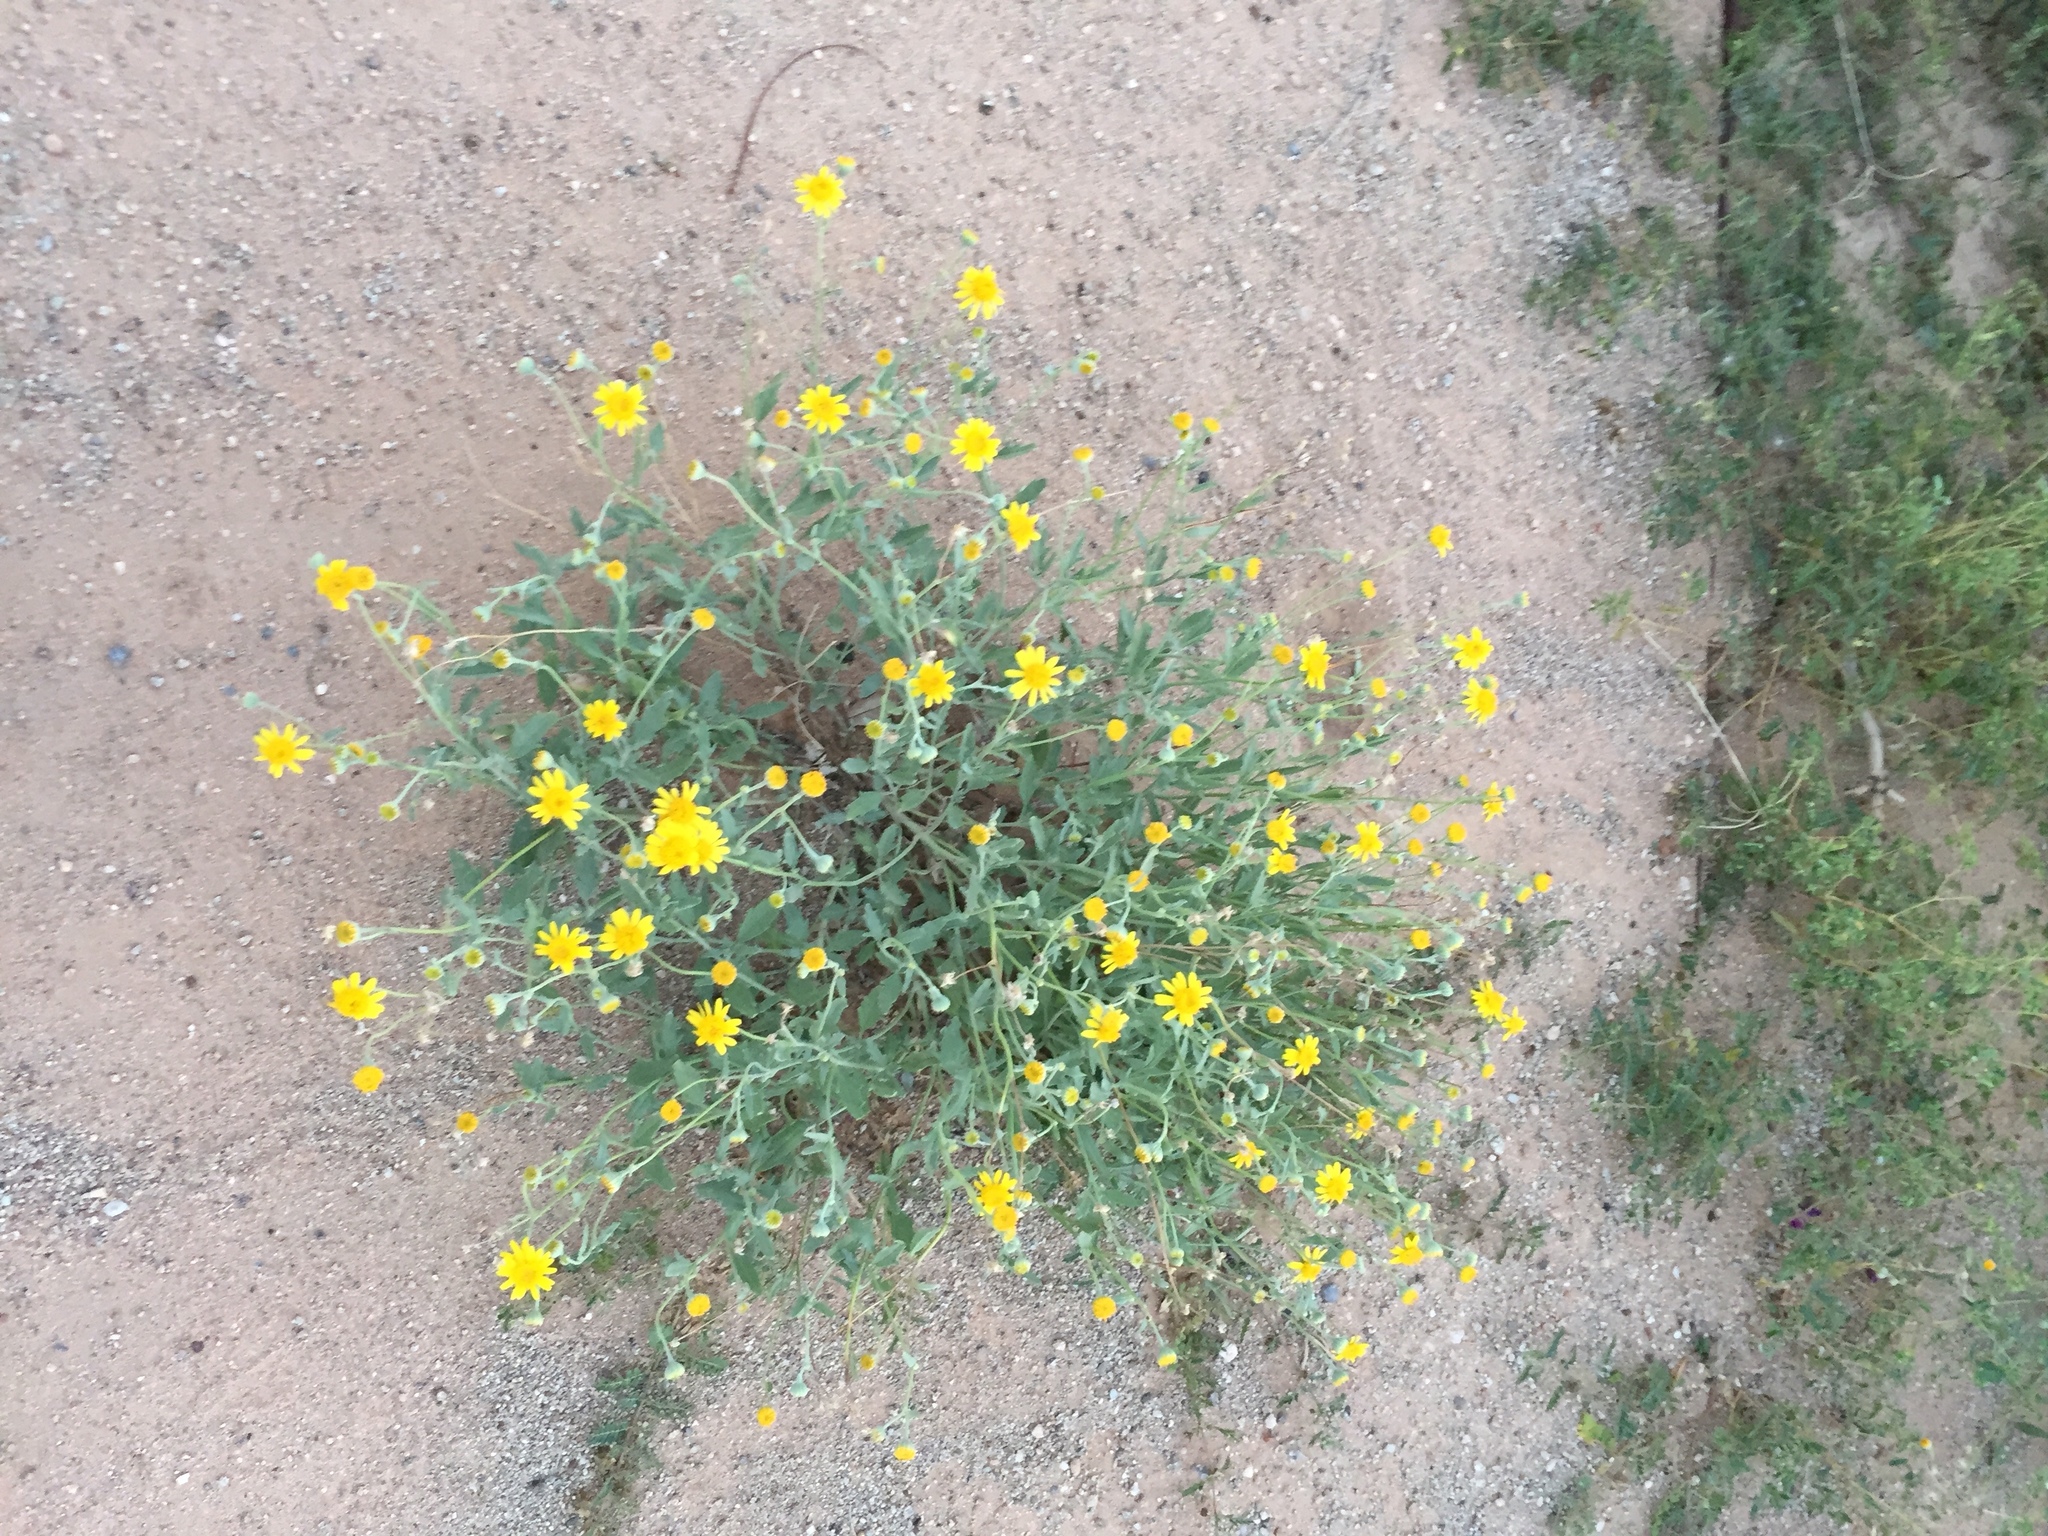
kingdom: Plantae
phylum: Tracheophyta
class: Magnoliopsida
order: Asterales
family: Asteraceae
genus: Picradeniopsis
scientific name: Picradeniopsis absinthifolia
